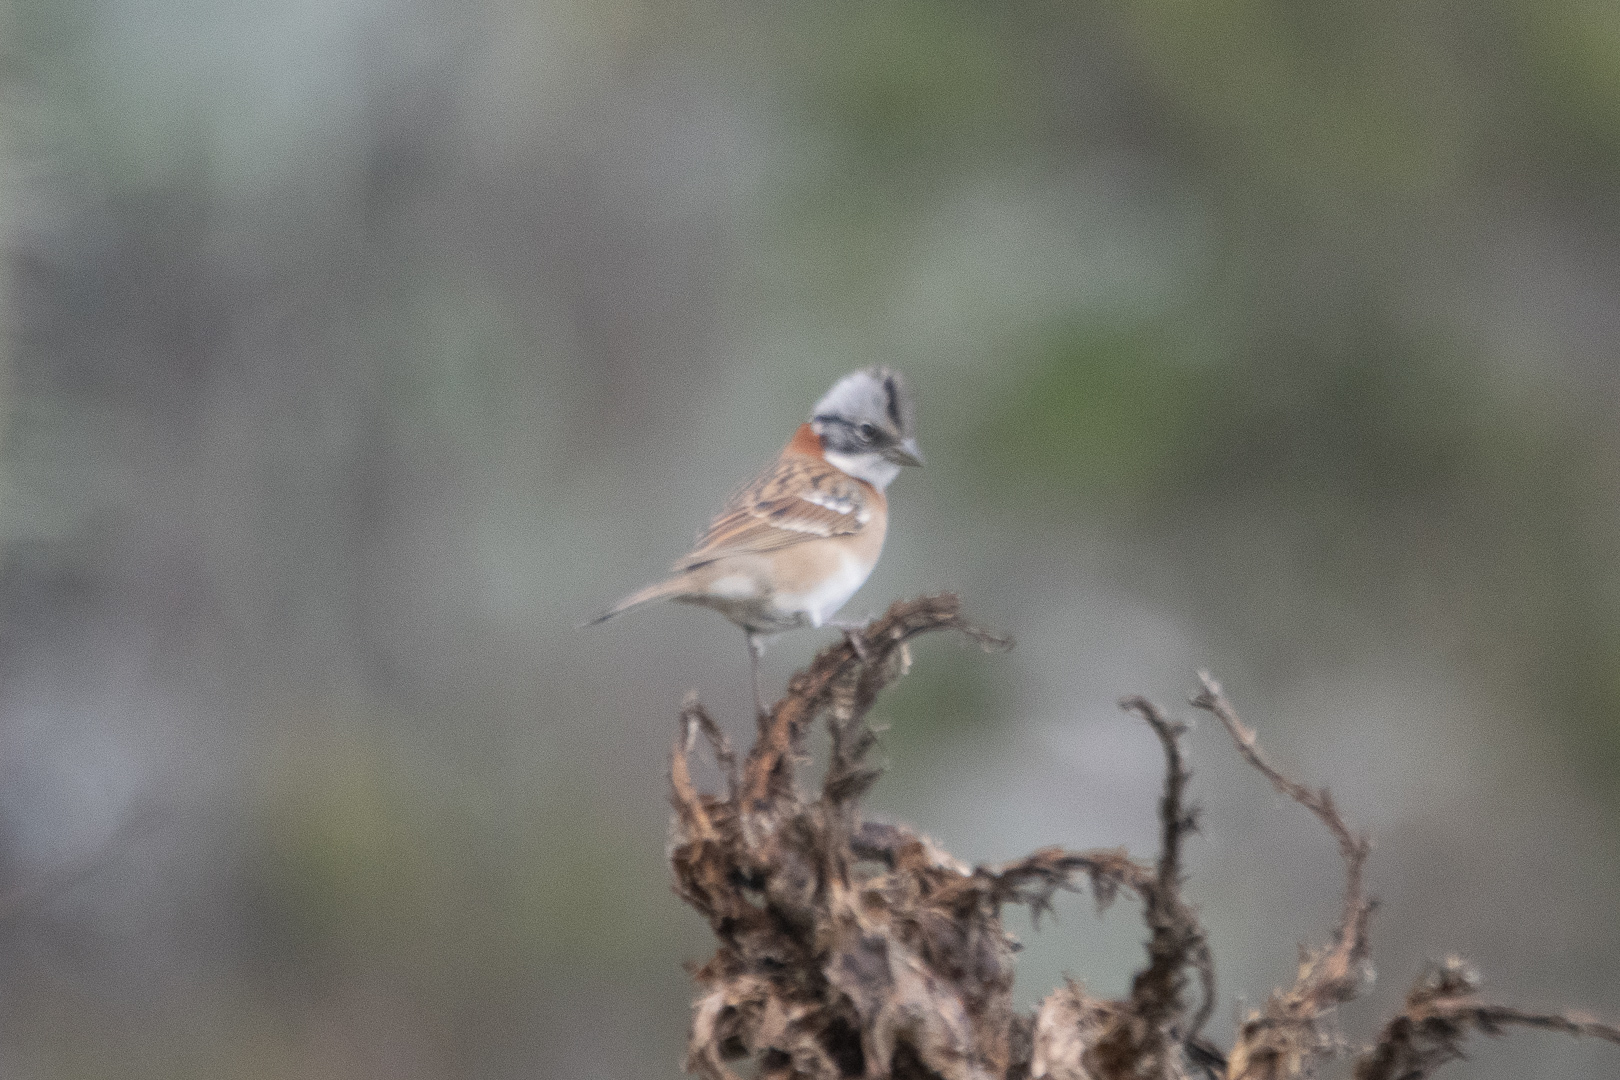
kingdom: Animalia
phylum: Chordata
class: Aves
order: Passeriformes
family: Passerellidae
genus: Zonotrichia
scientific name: Zonotrichia capensis
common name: Rufous-collared sparrow
